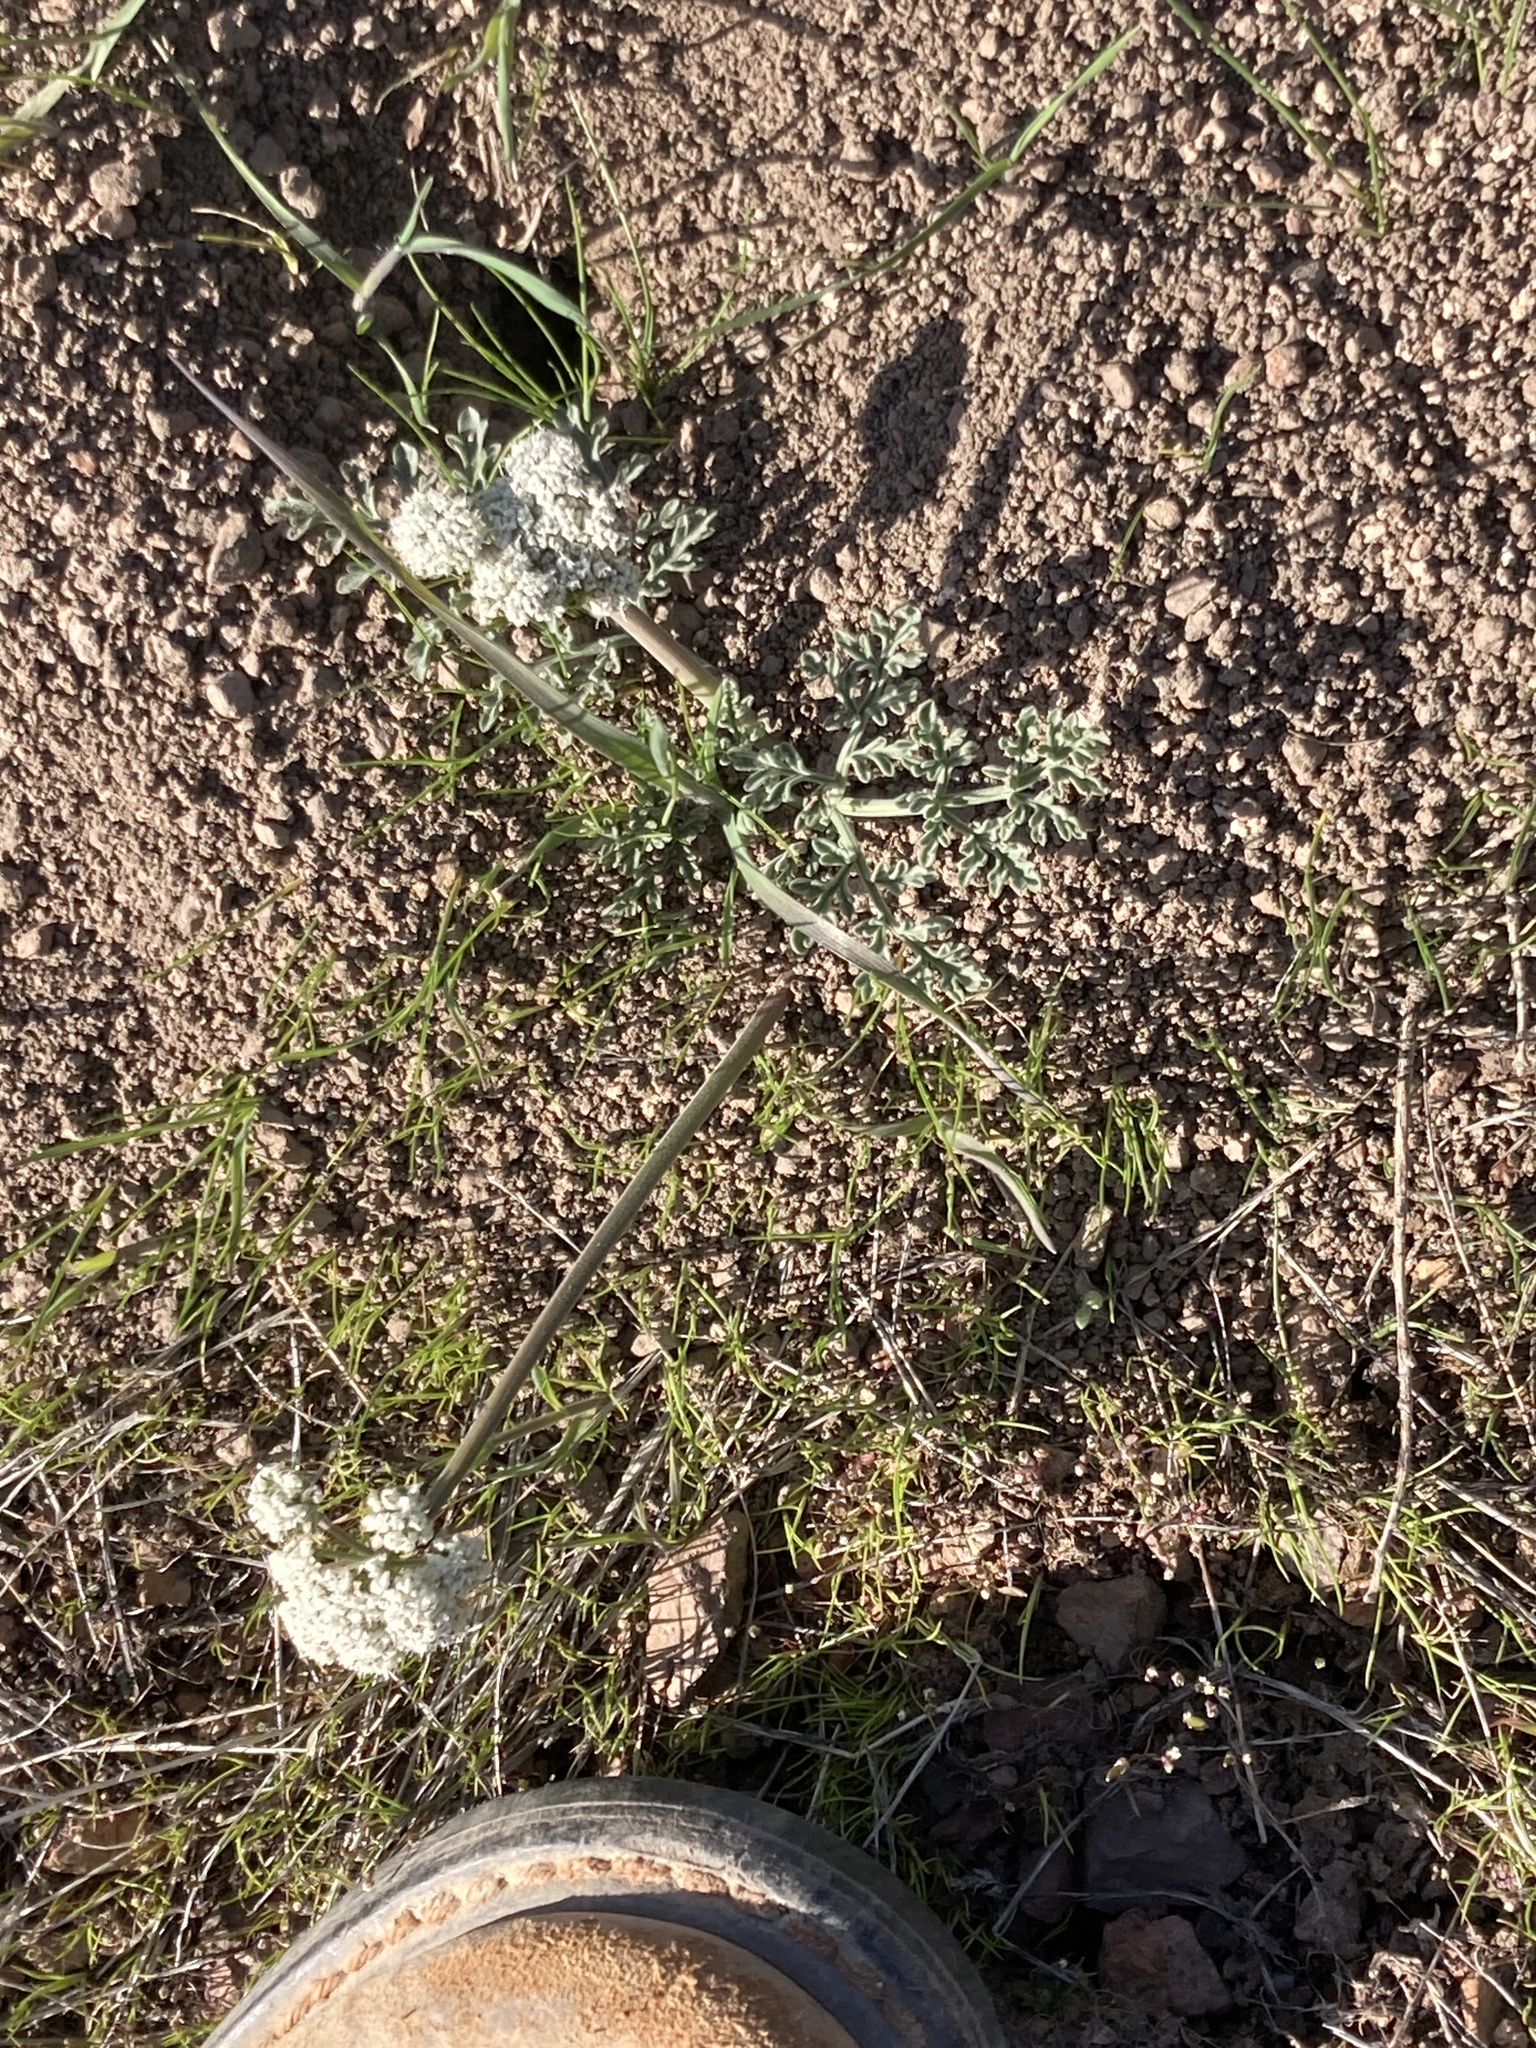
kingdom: Plantae
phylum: Tracheophyta
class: Magnoliopsida
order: Apiales
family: Apiaceae
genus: Lomatium
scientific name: Lomatium nevadense
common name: Nevada lomatium
